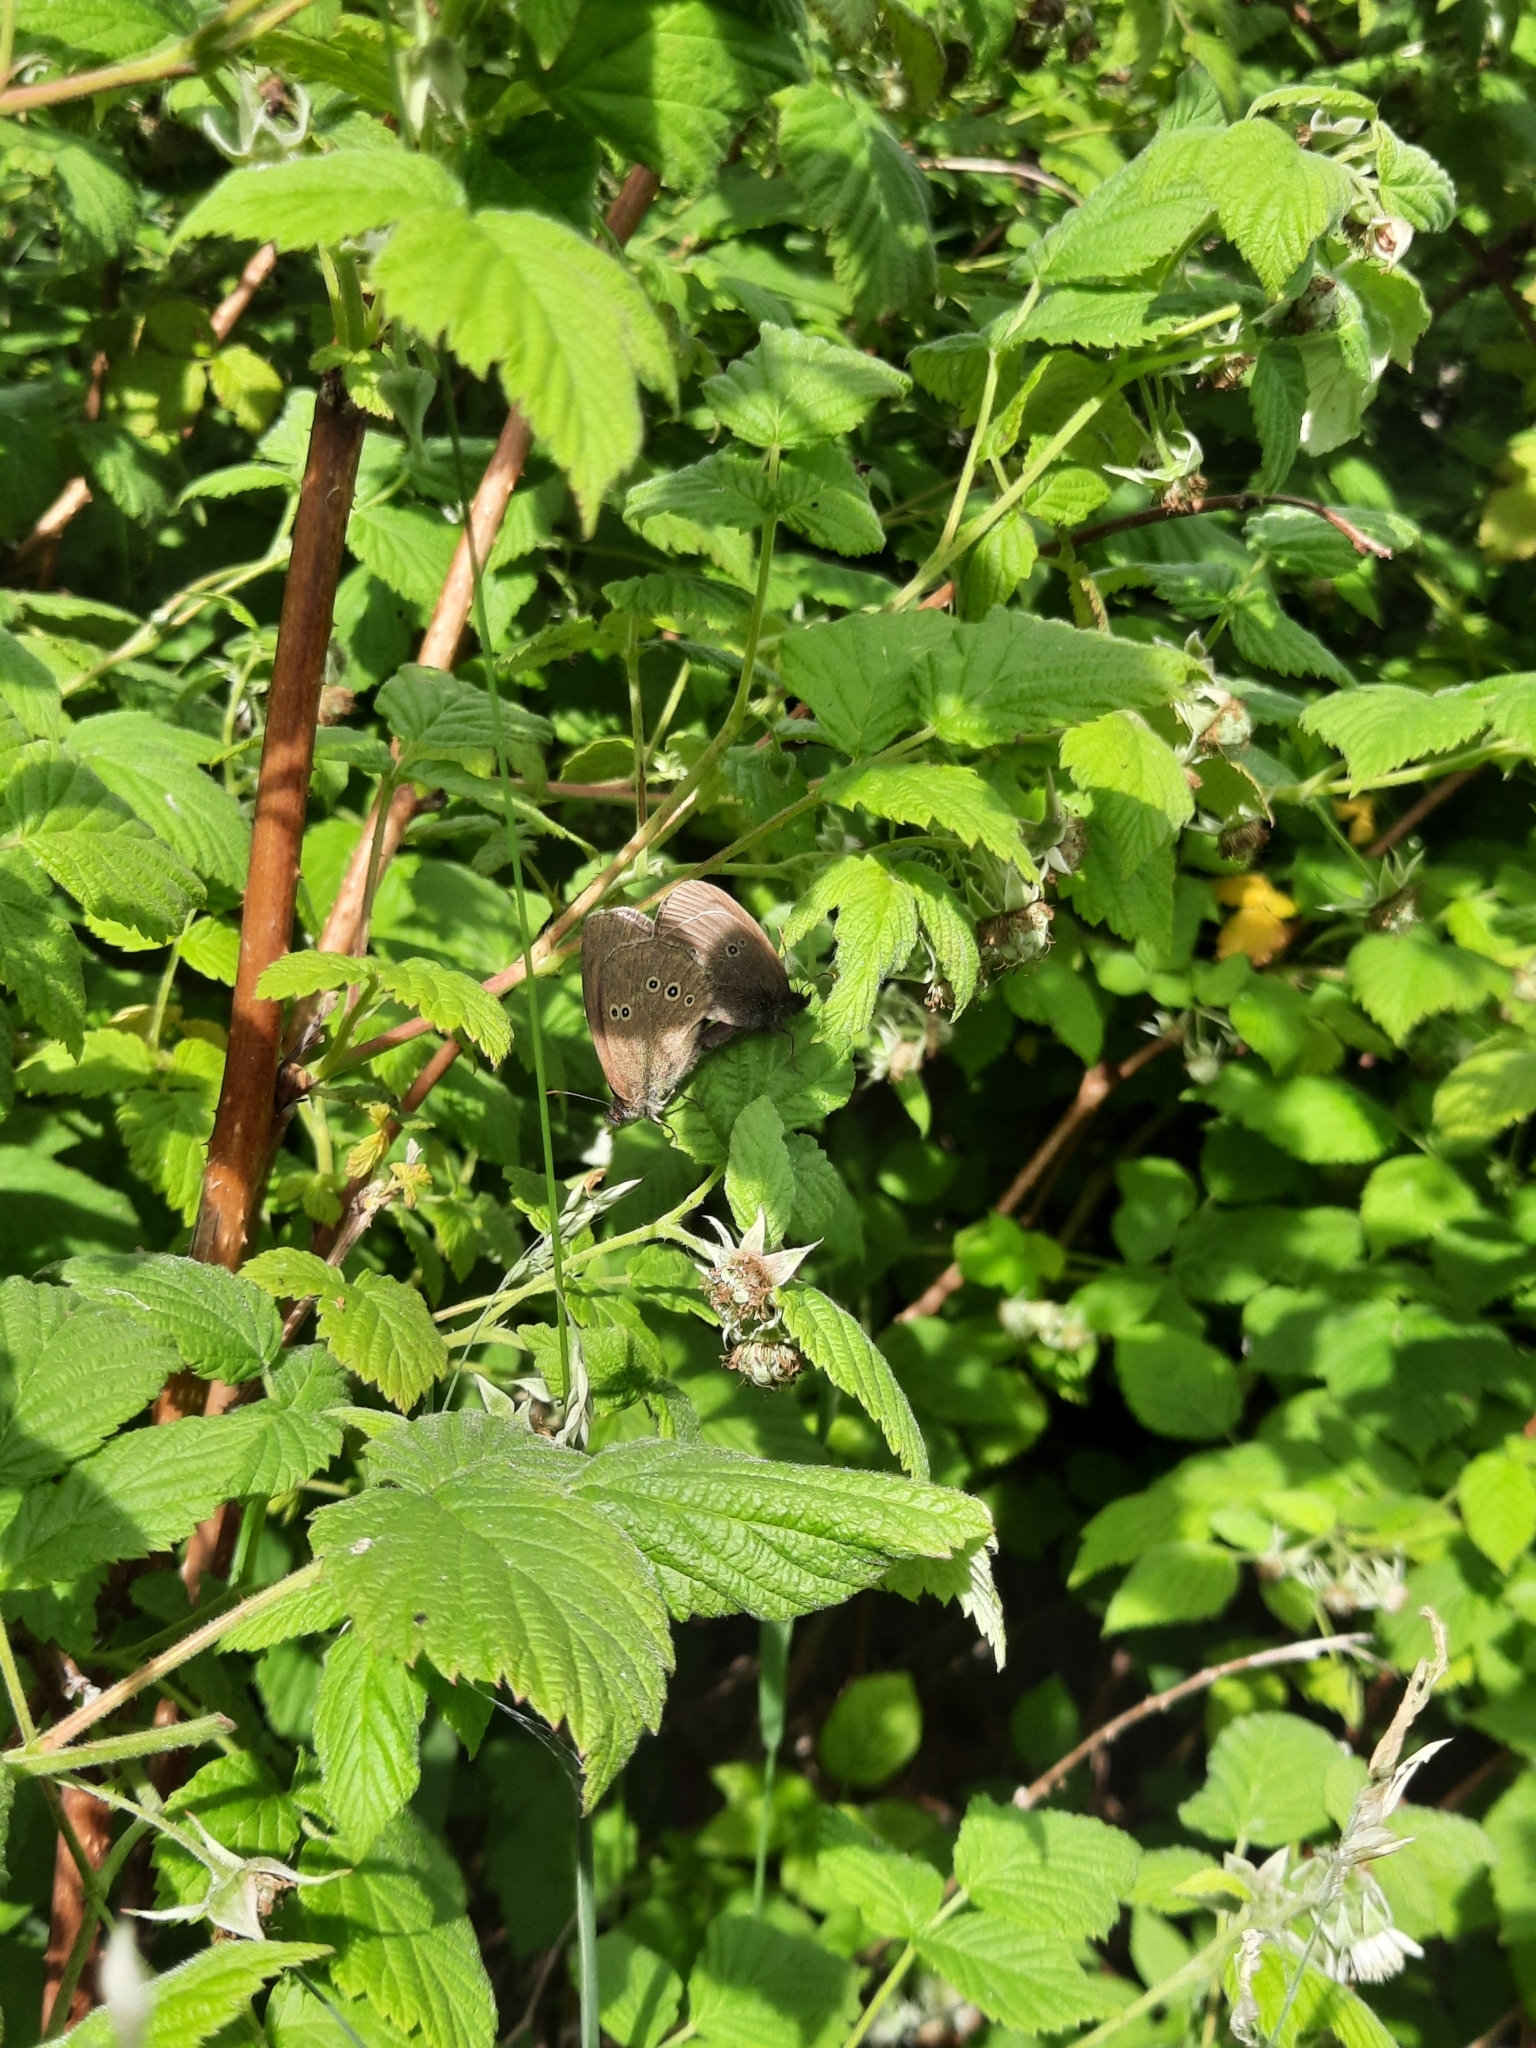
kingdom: Animalia
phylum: Arthropoda
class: Insecta
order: Lepidoptera
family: Nymphalidae
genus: Aphantopus
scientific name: Aphantopus hyperantus
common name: Ringlet
